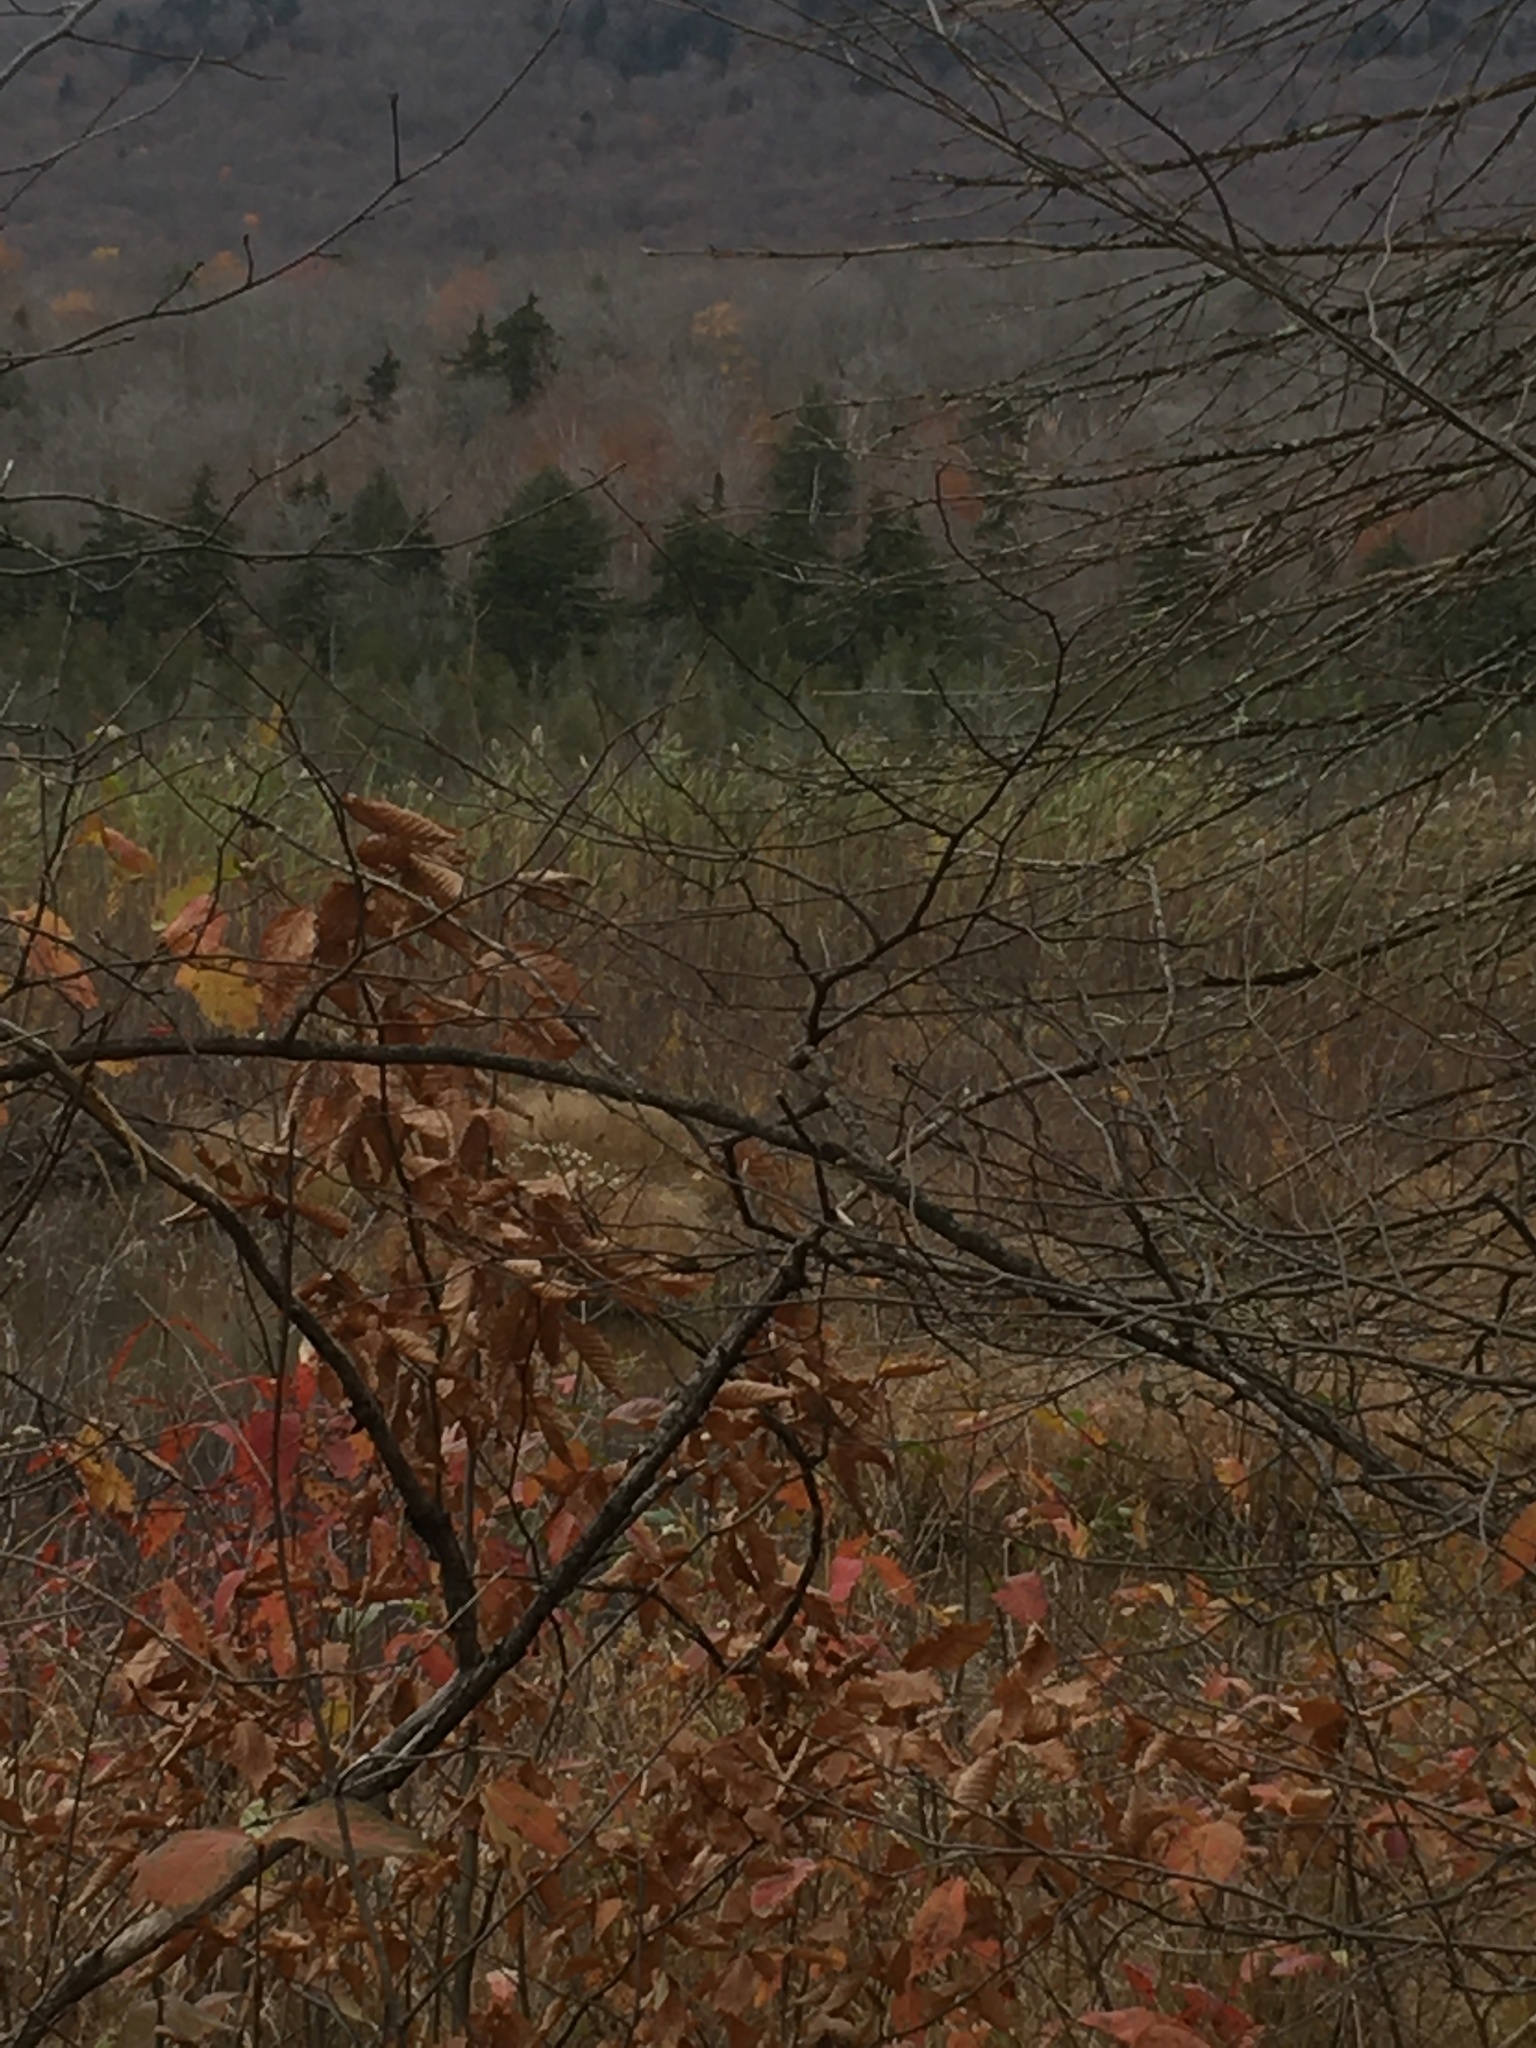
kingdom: Plantae
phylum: Tracheophyta
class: Liliopsida
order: Poales
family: Poaceae
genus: Phragmites
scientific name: Phragmites australis
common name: Common reed
